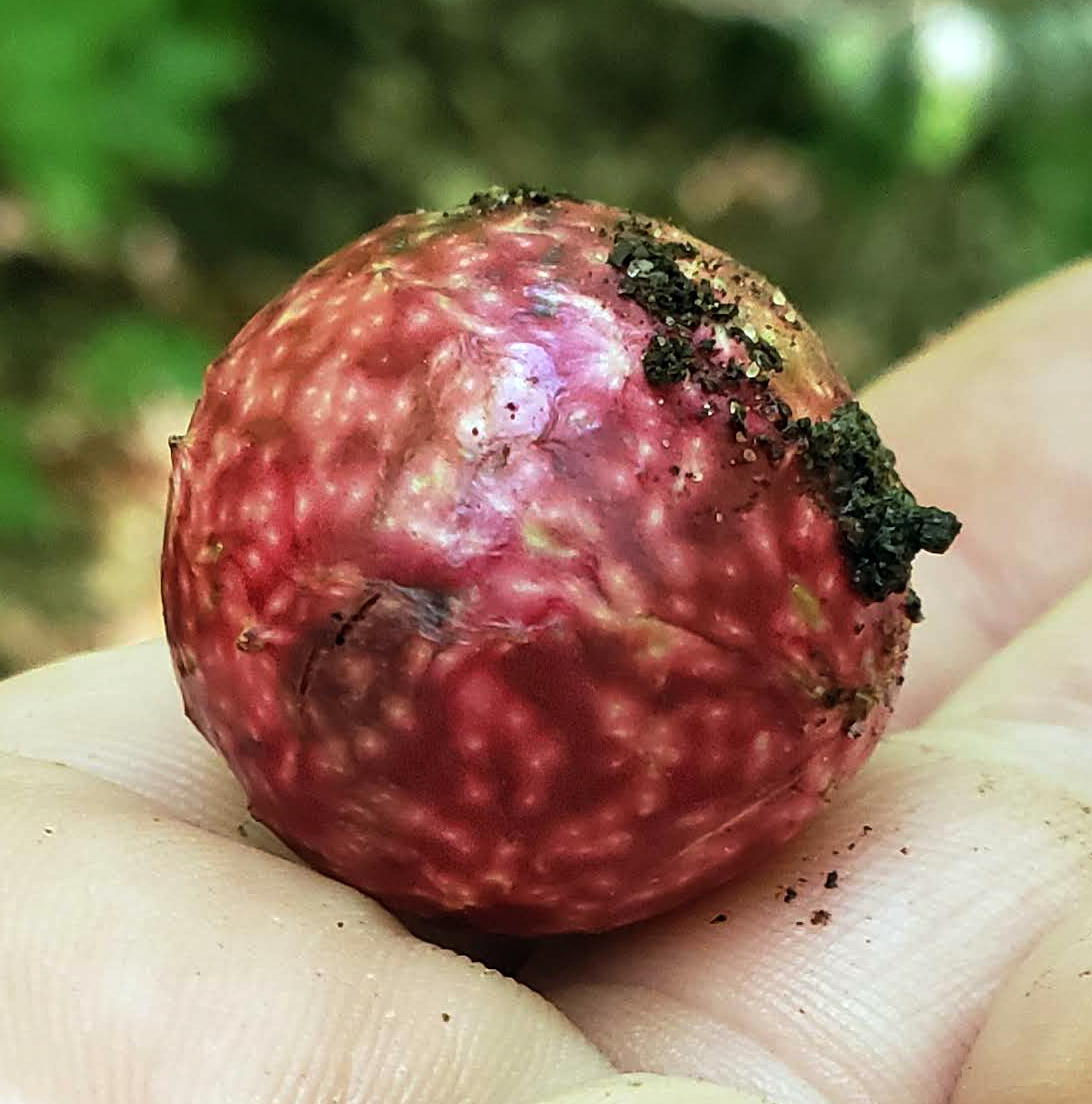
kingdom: Animalia
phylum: Arthropoda
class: Insecta
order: Hymenoptera
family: Cynipidae
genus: Amphibolips
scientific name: Amphibolips
